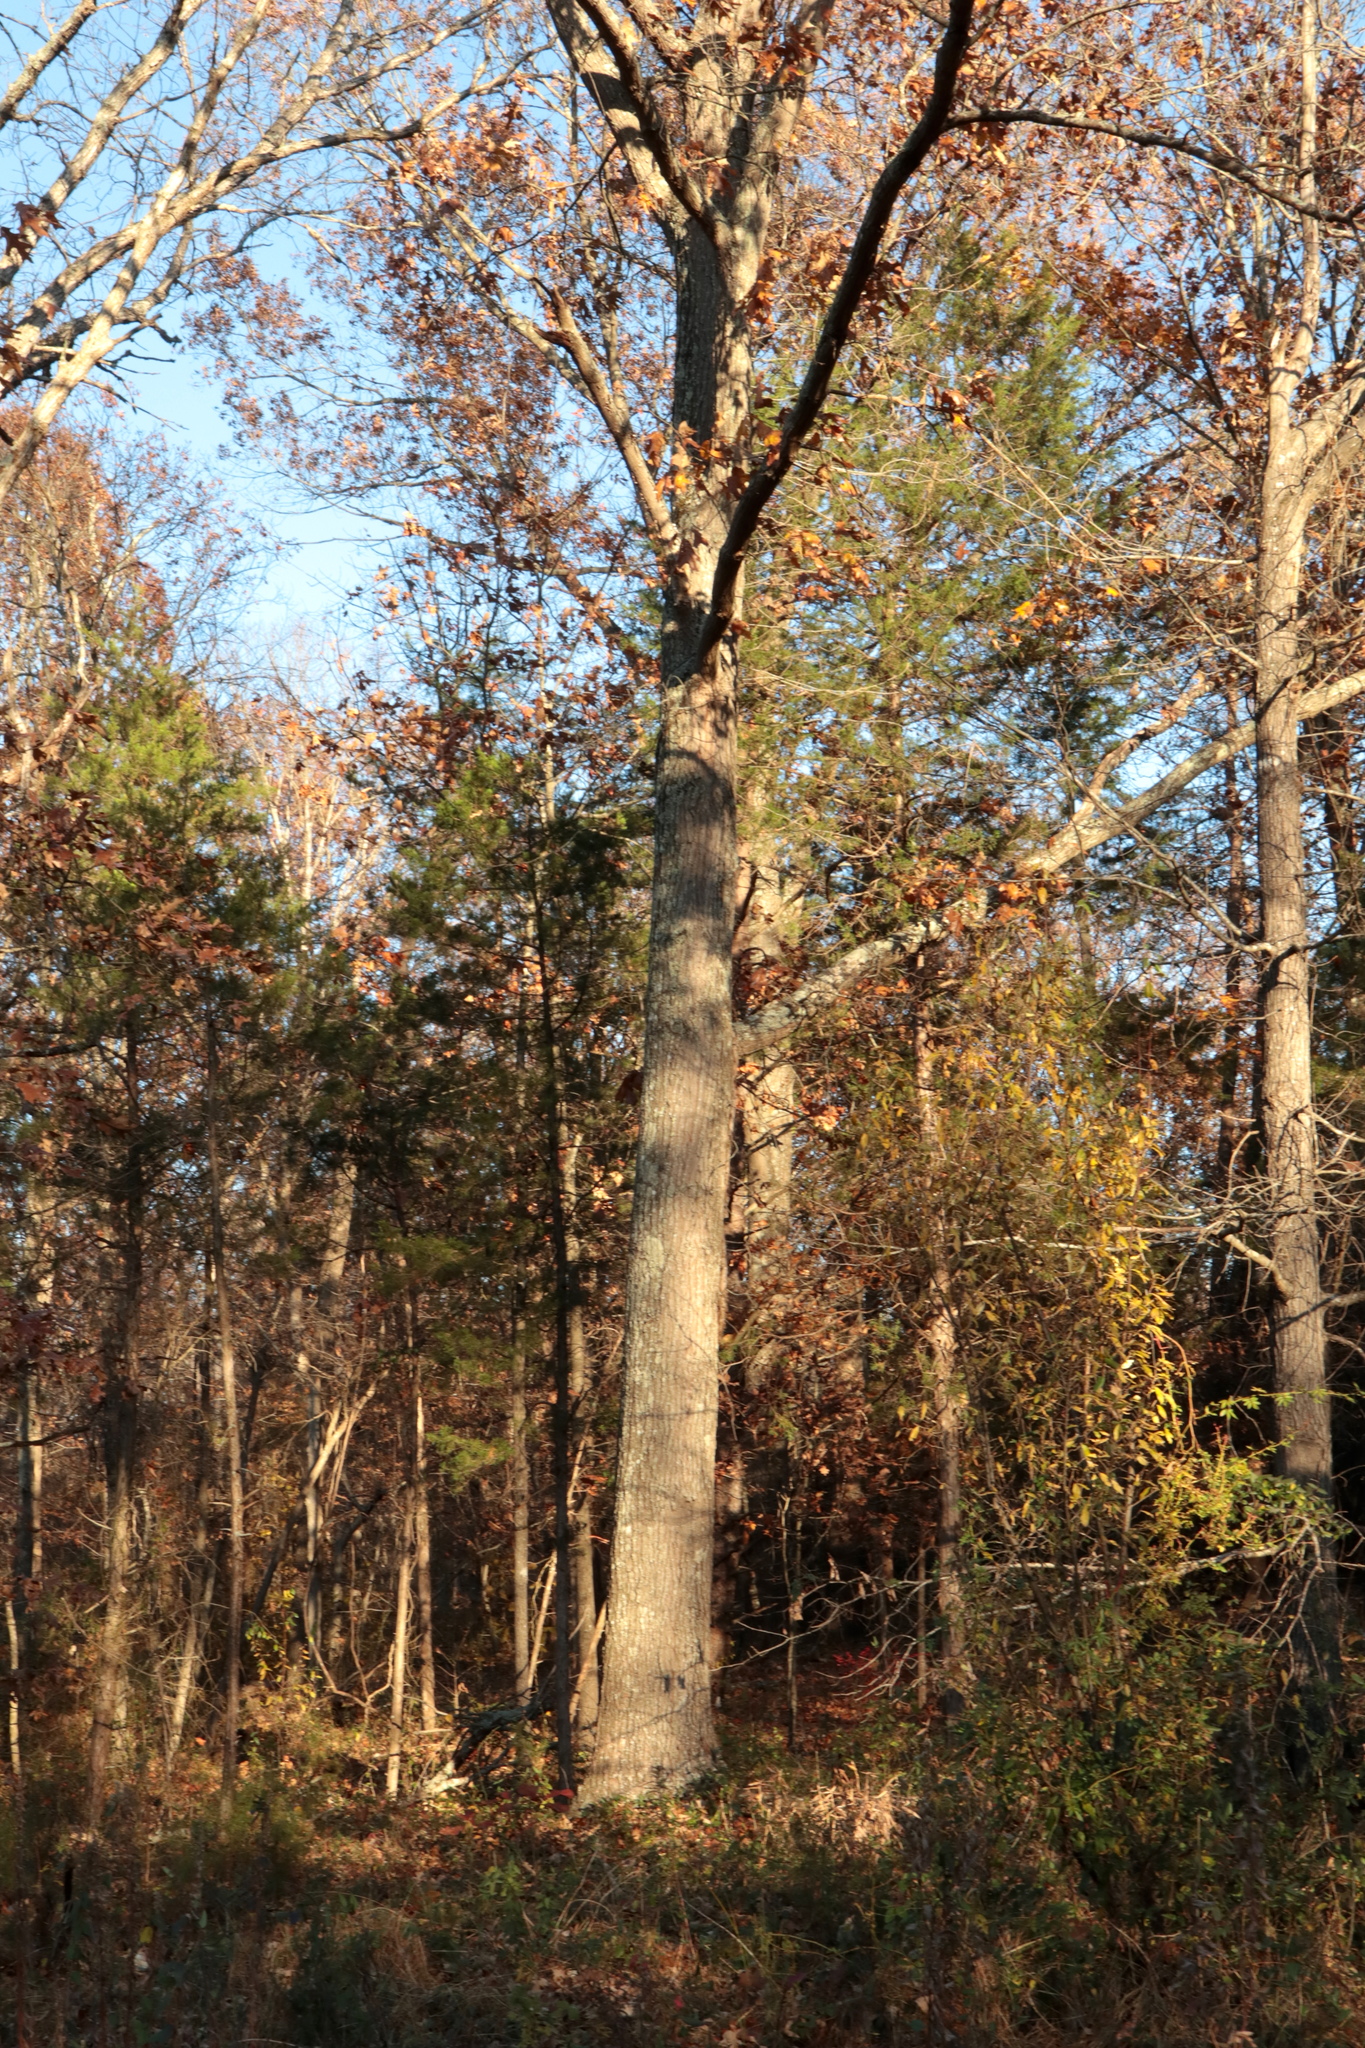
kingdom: Plantae
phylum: Tracheophyta
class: Magnoliopsida
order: Fagales
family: Fagaceae
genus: Quercus
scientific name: Quercus falcata
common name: Southern red oak
